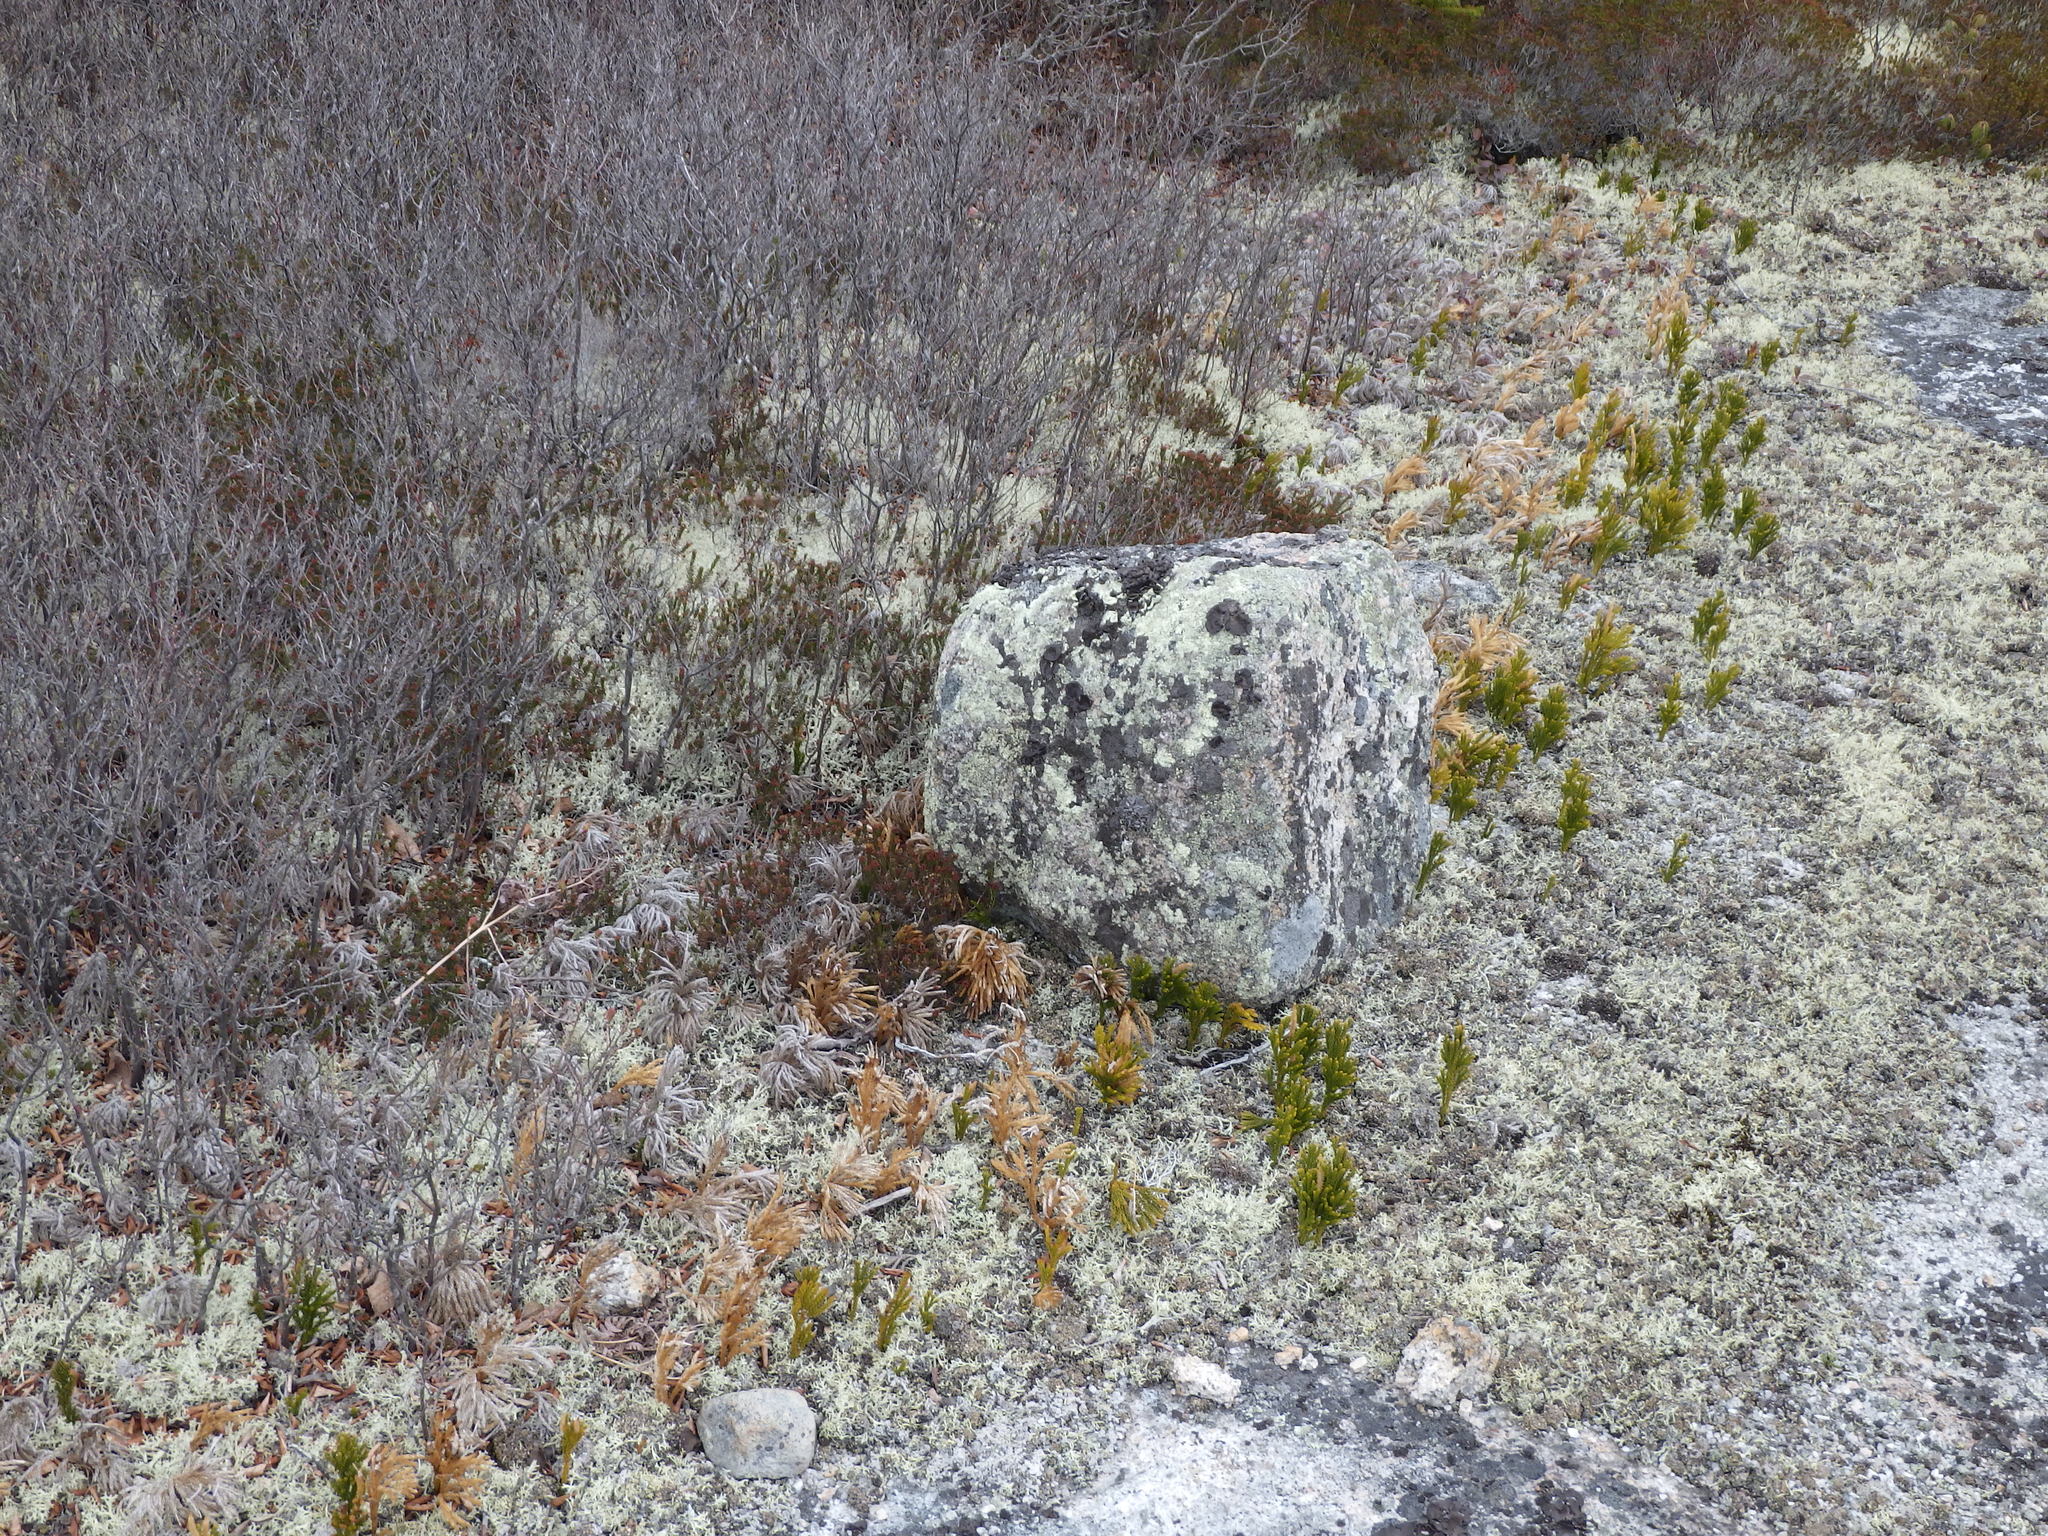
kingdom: Plantae
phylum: Tracheophyta
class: Lycopodiopsida
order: Lycopodiales
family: Lycopodiaceae
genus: Dendrolycopodium
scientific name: Dendrolycopodium hickeyi
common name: Hickey's clubmoss
